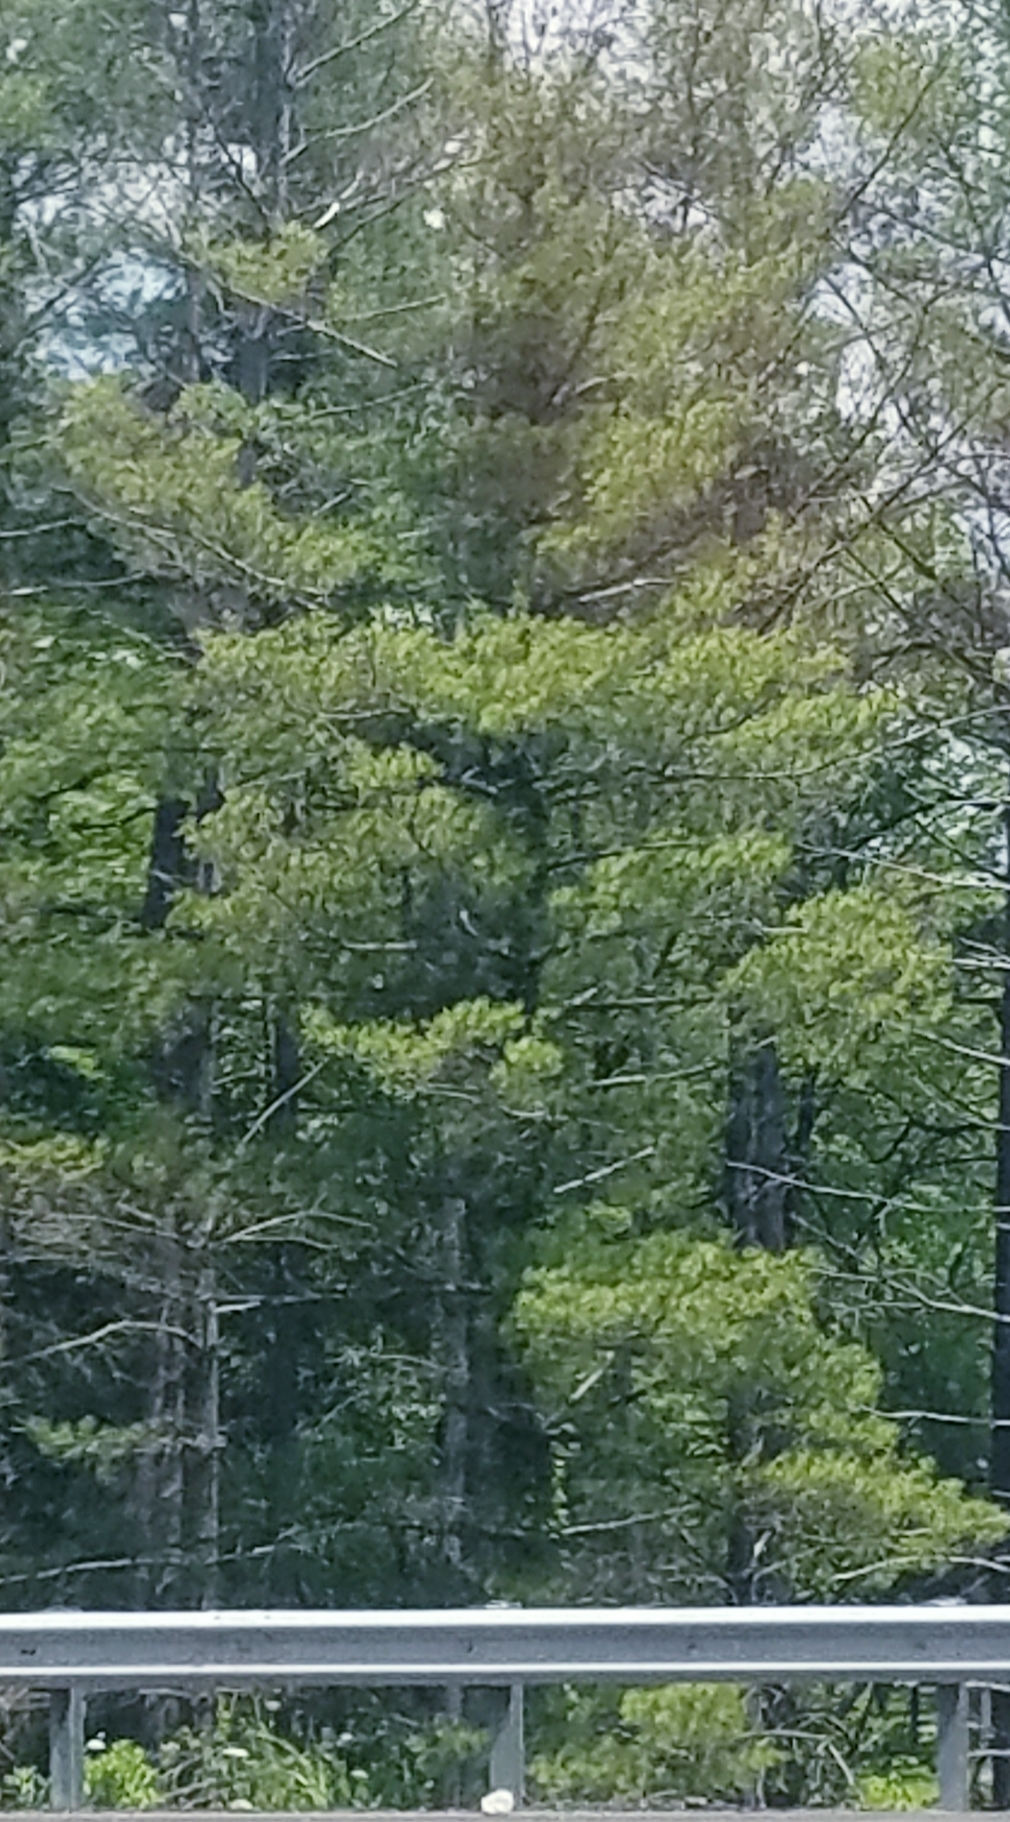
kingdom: Plantae
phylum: Tracheophyta
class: Pinopsida
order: Pinales
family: Pinaceae
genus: Pinus
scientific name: Pinus strobus
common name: Weymouth pine
